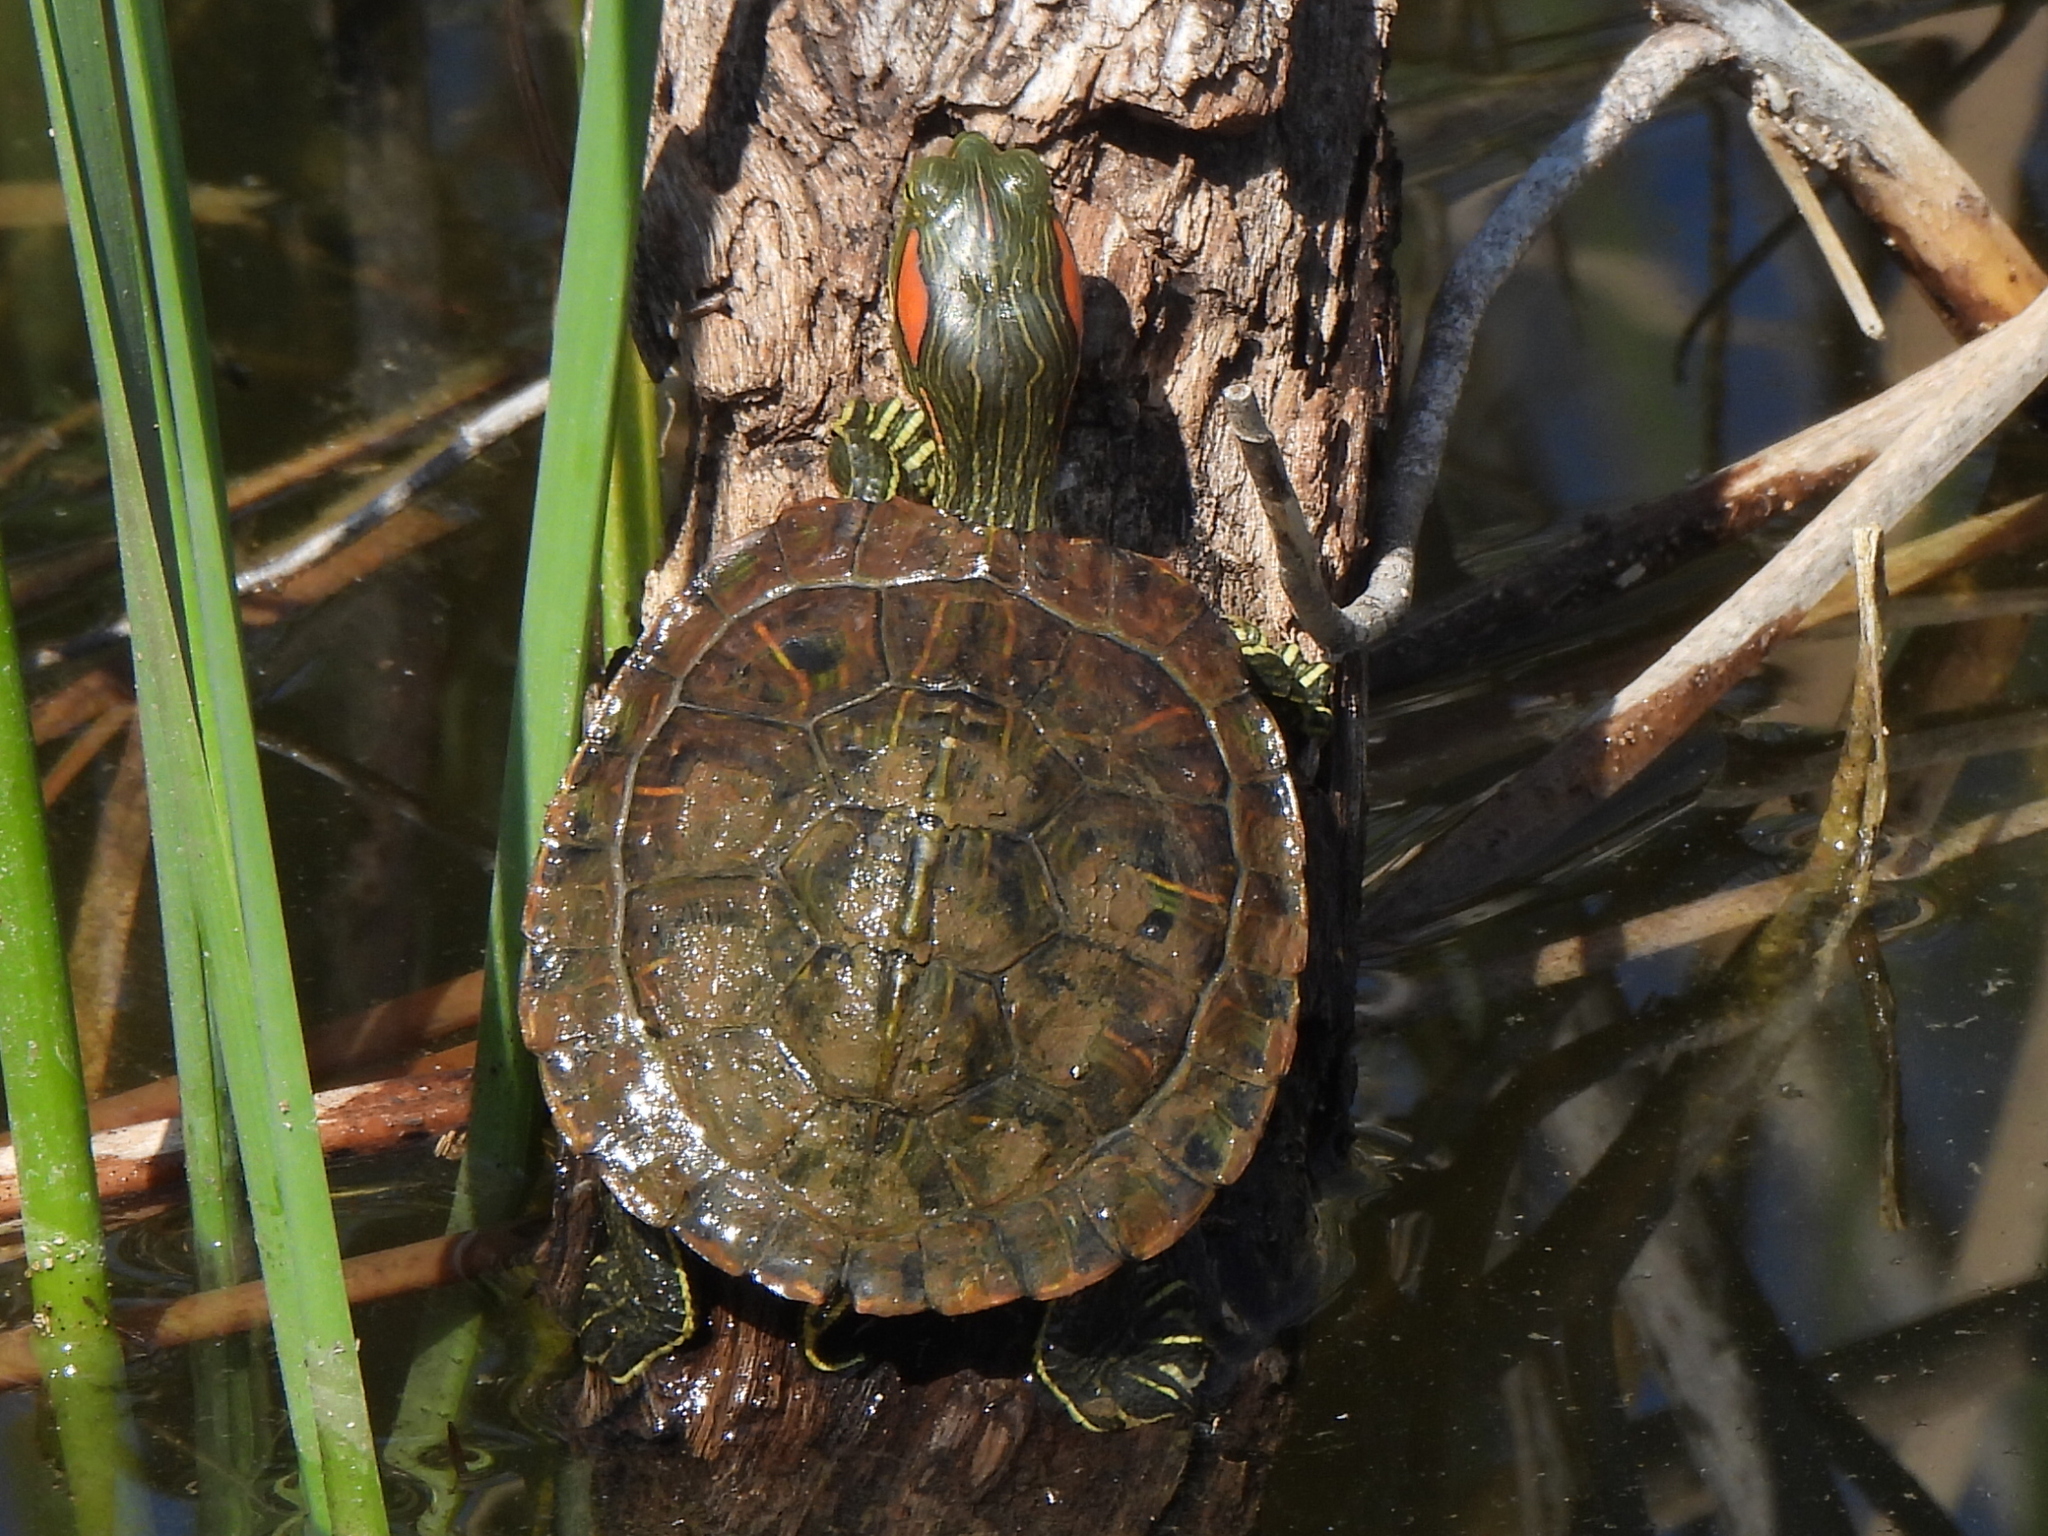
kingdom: Animalia
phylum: Chordata
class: Testudines
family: Emydidae
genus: Trachemys
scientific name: Trachemys scripta
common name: Slider
